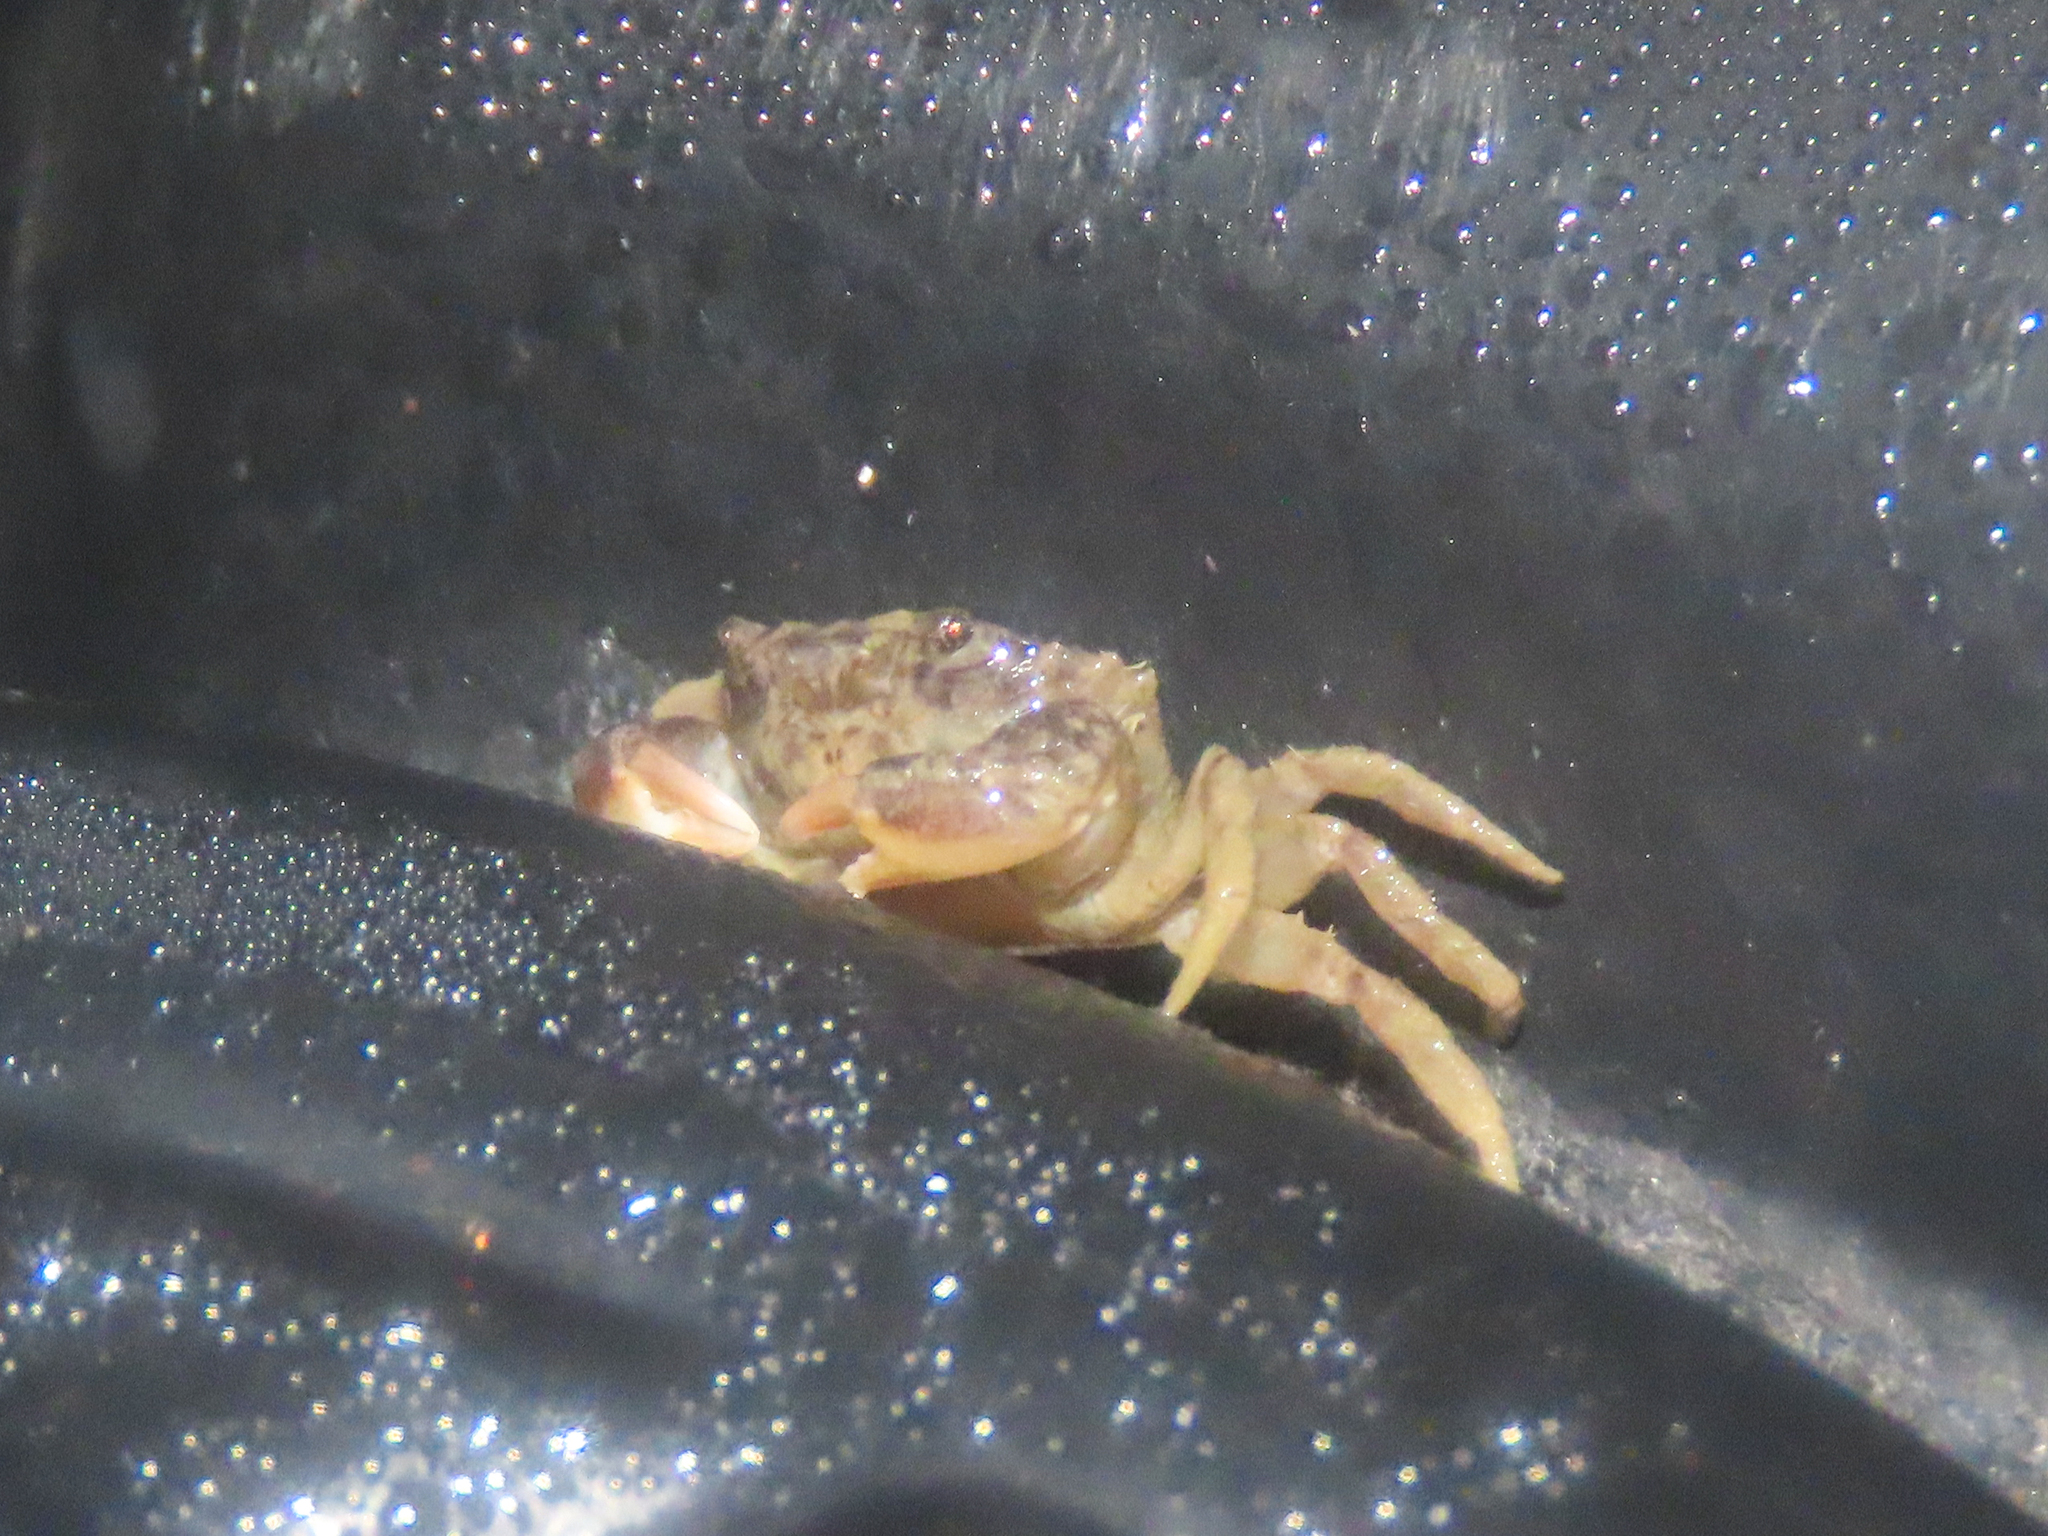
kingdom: Animalia
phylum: Arthropoda
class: Malacostraca
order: Decapoda
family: Panopeidae
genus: Rhithropanopeus
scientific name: Rhithropanopeus harrisii
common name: Dwarf crab
